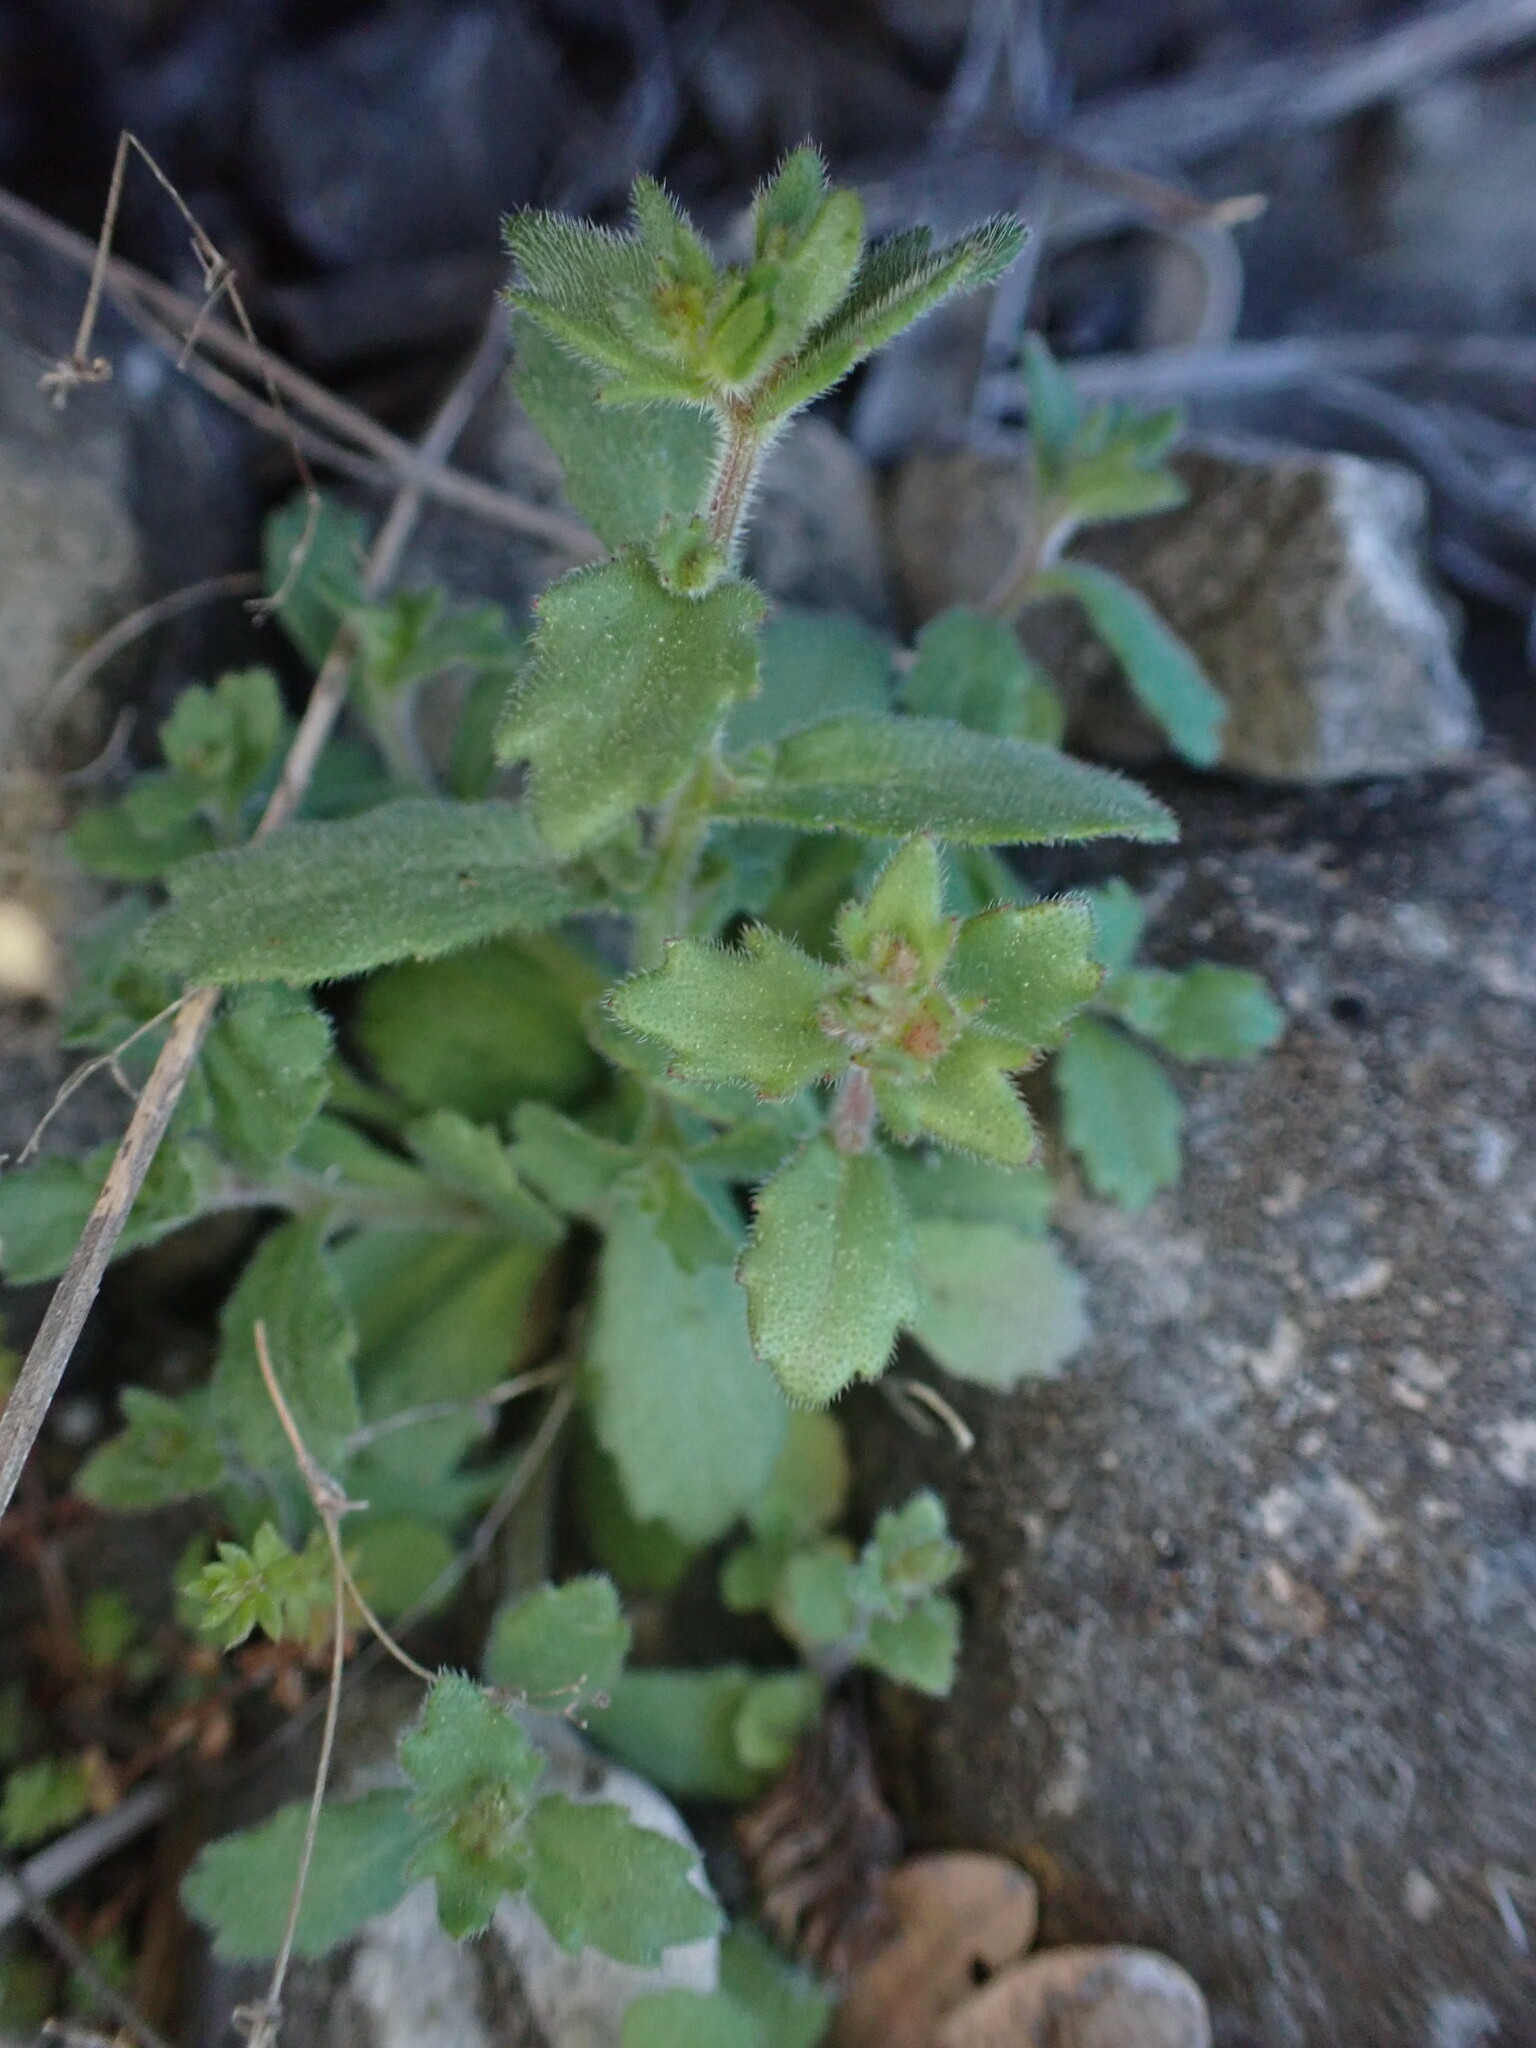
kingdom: Plantae
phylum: Tracheophyta
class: Magnoliopsida
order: Asterales
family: Campanulaceae
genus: Campanula
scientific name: Campanula erinus
